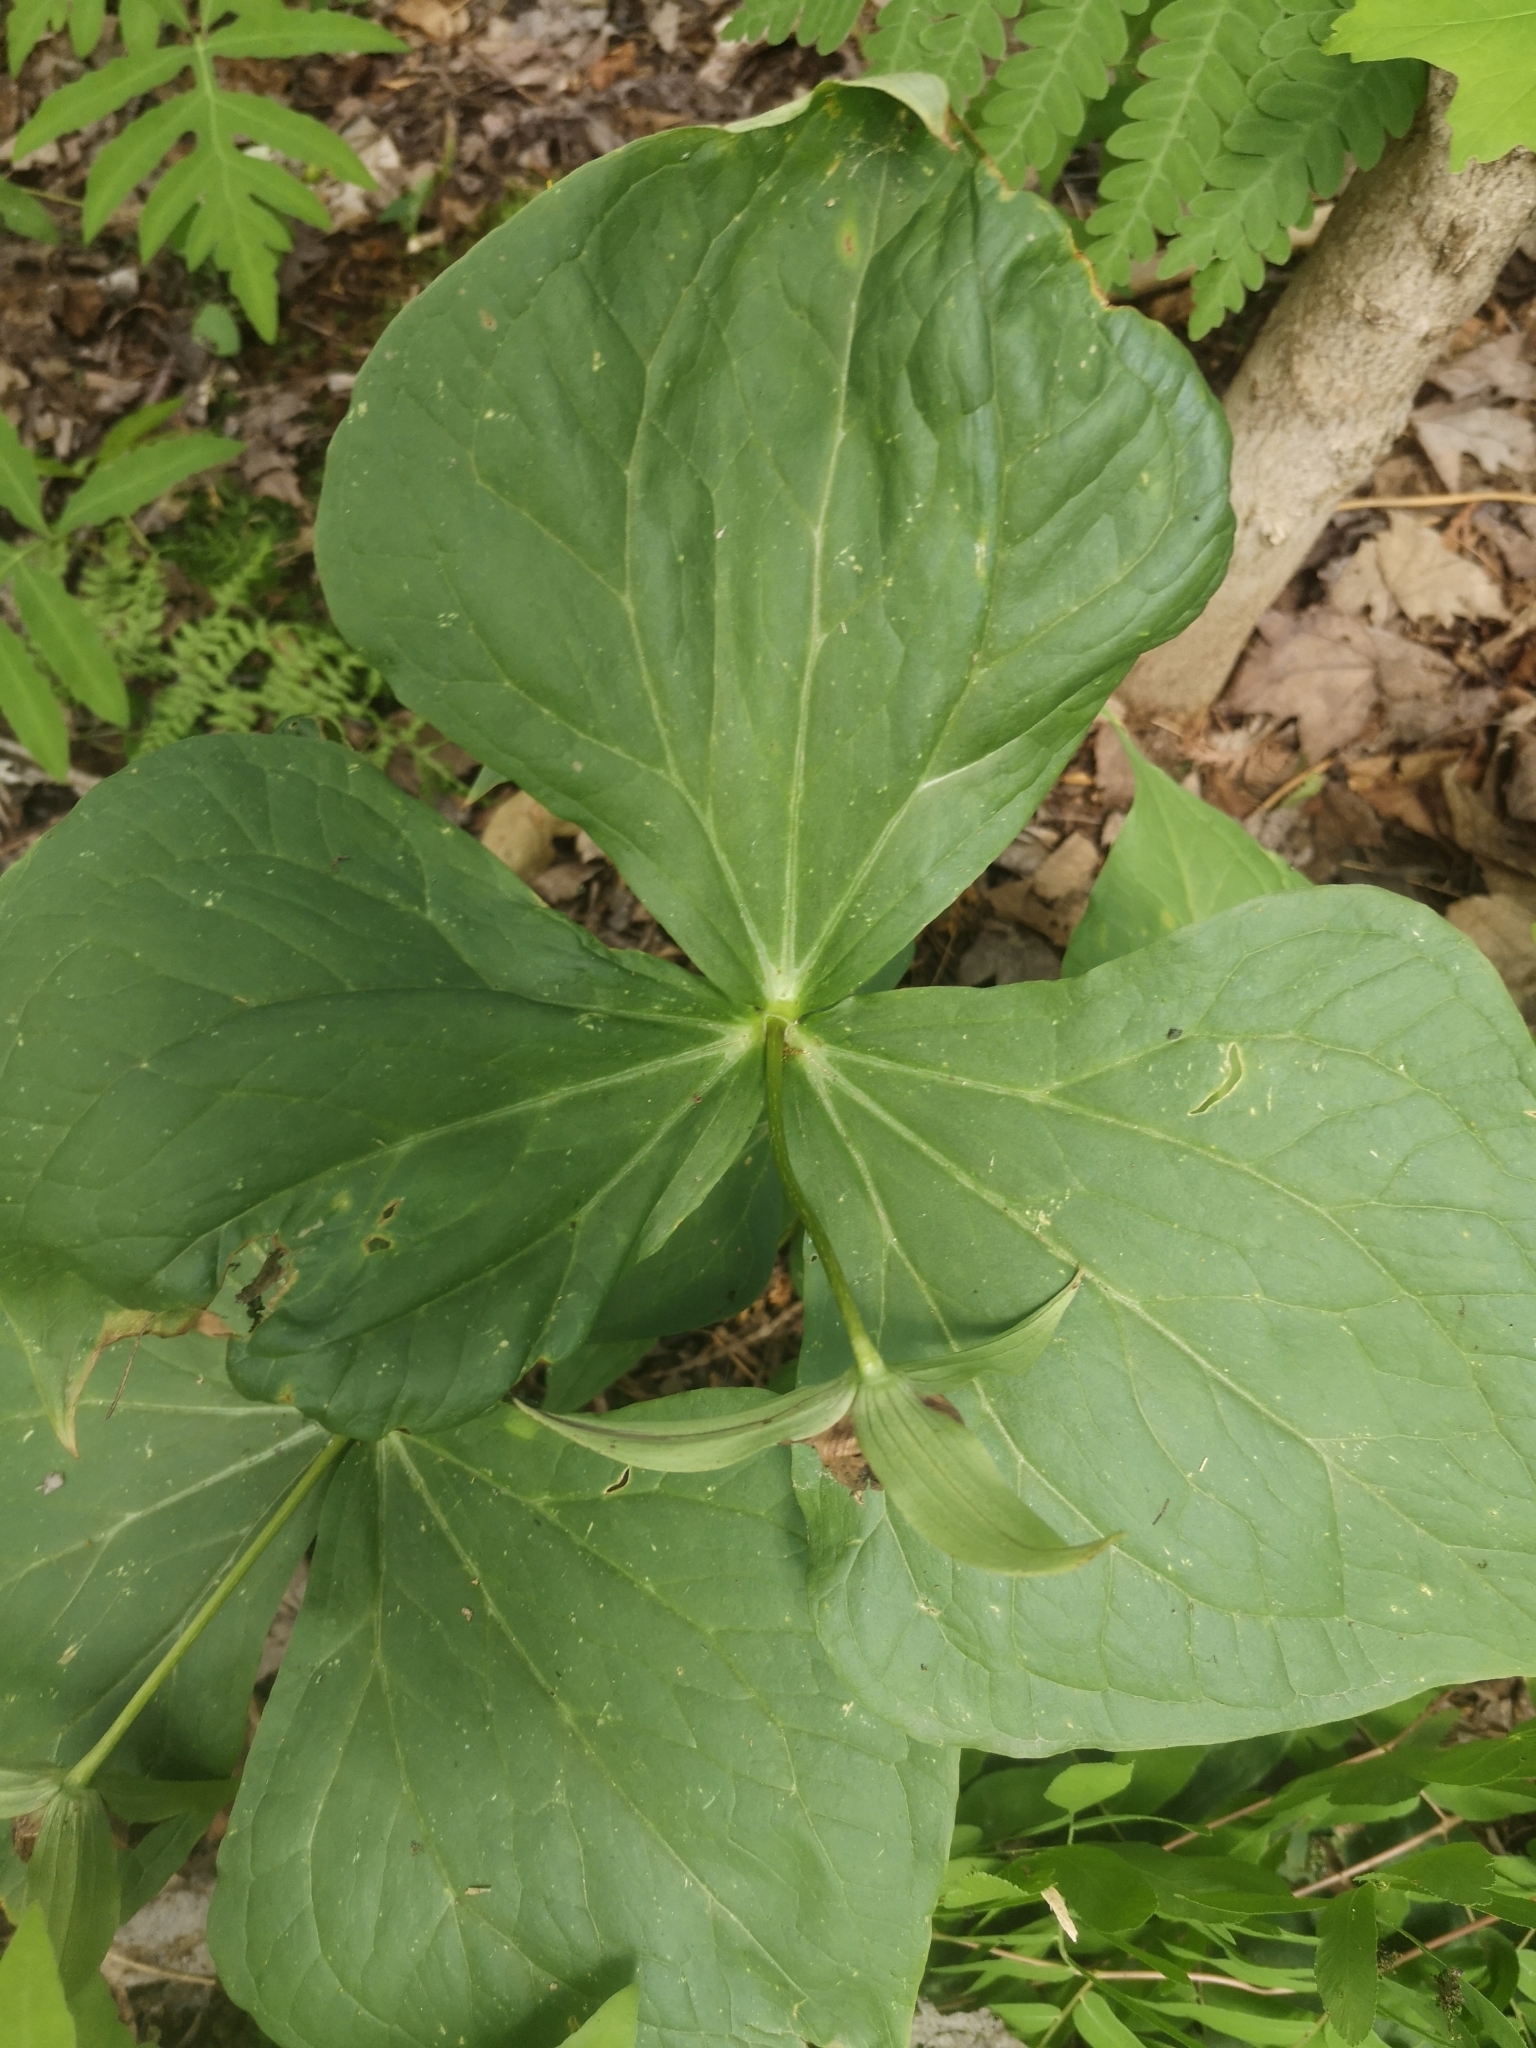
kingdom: Plantae
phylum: Tracheophyta
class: Liliopsida
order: Liliales
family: Melanthiaceae
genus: Trillium
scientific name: Trillium erectum
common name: Purple trillium
